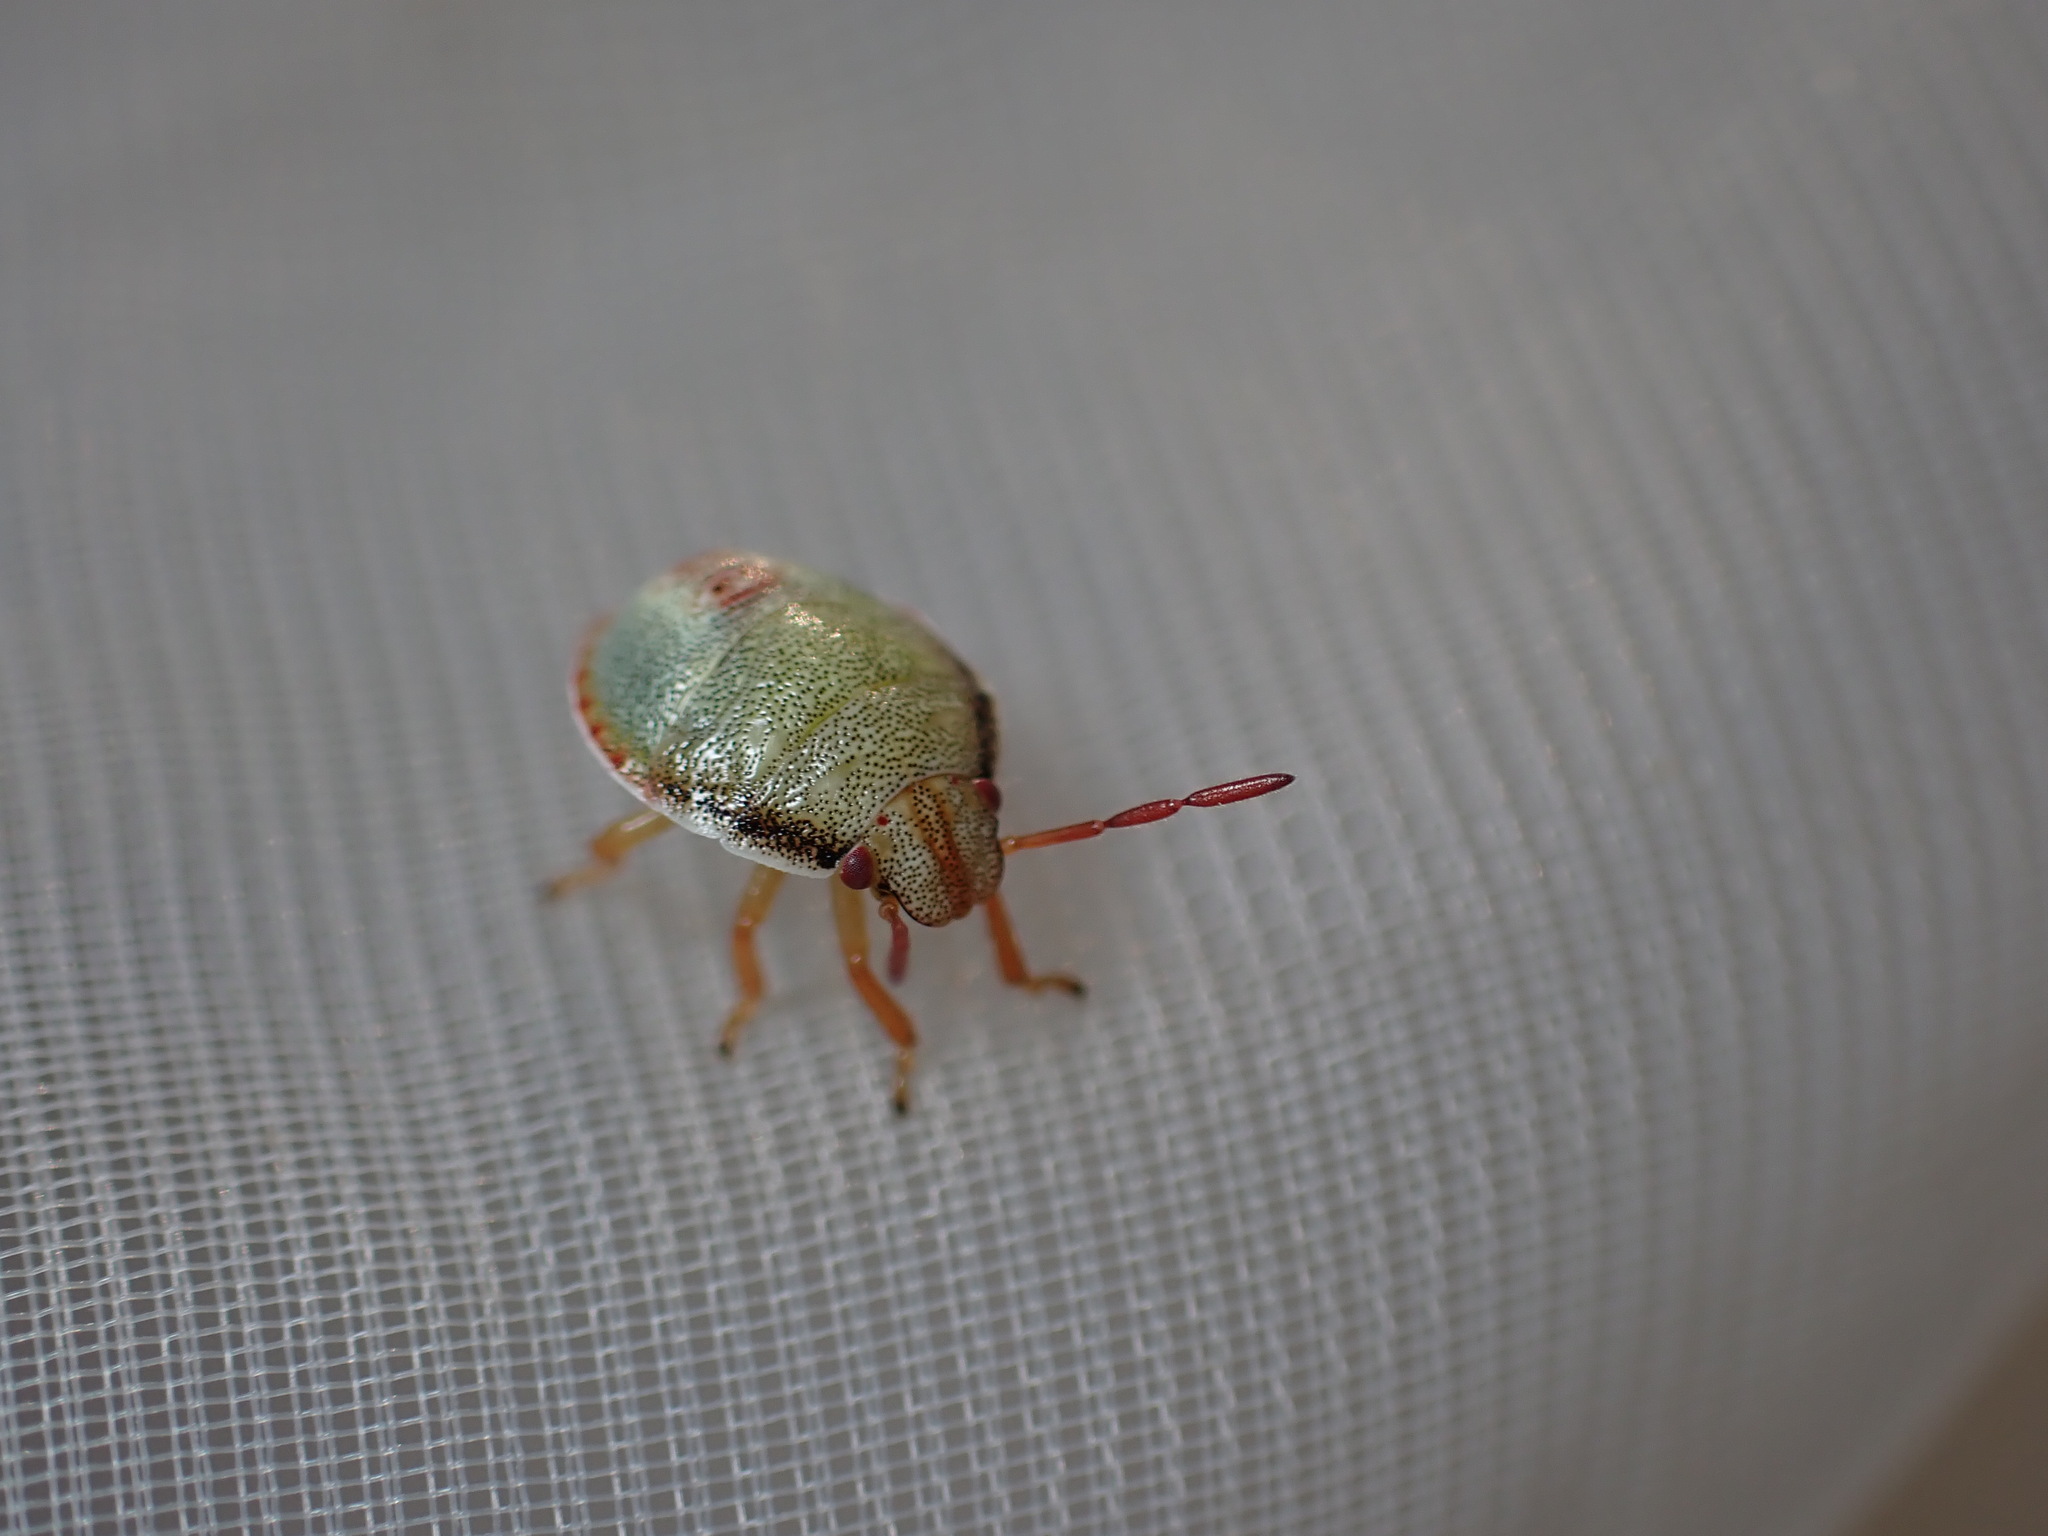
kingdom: Animalia
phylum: Arthropoda
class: Insecta
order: Hemiptera
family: Pentatomidae
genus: Piezodorus
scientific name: Piezodorus lituratus
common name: Stink bug
